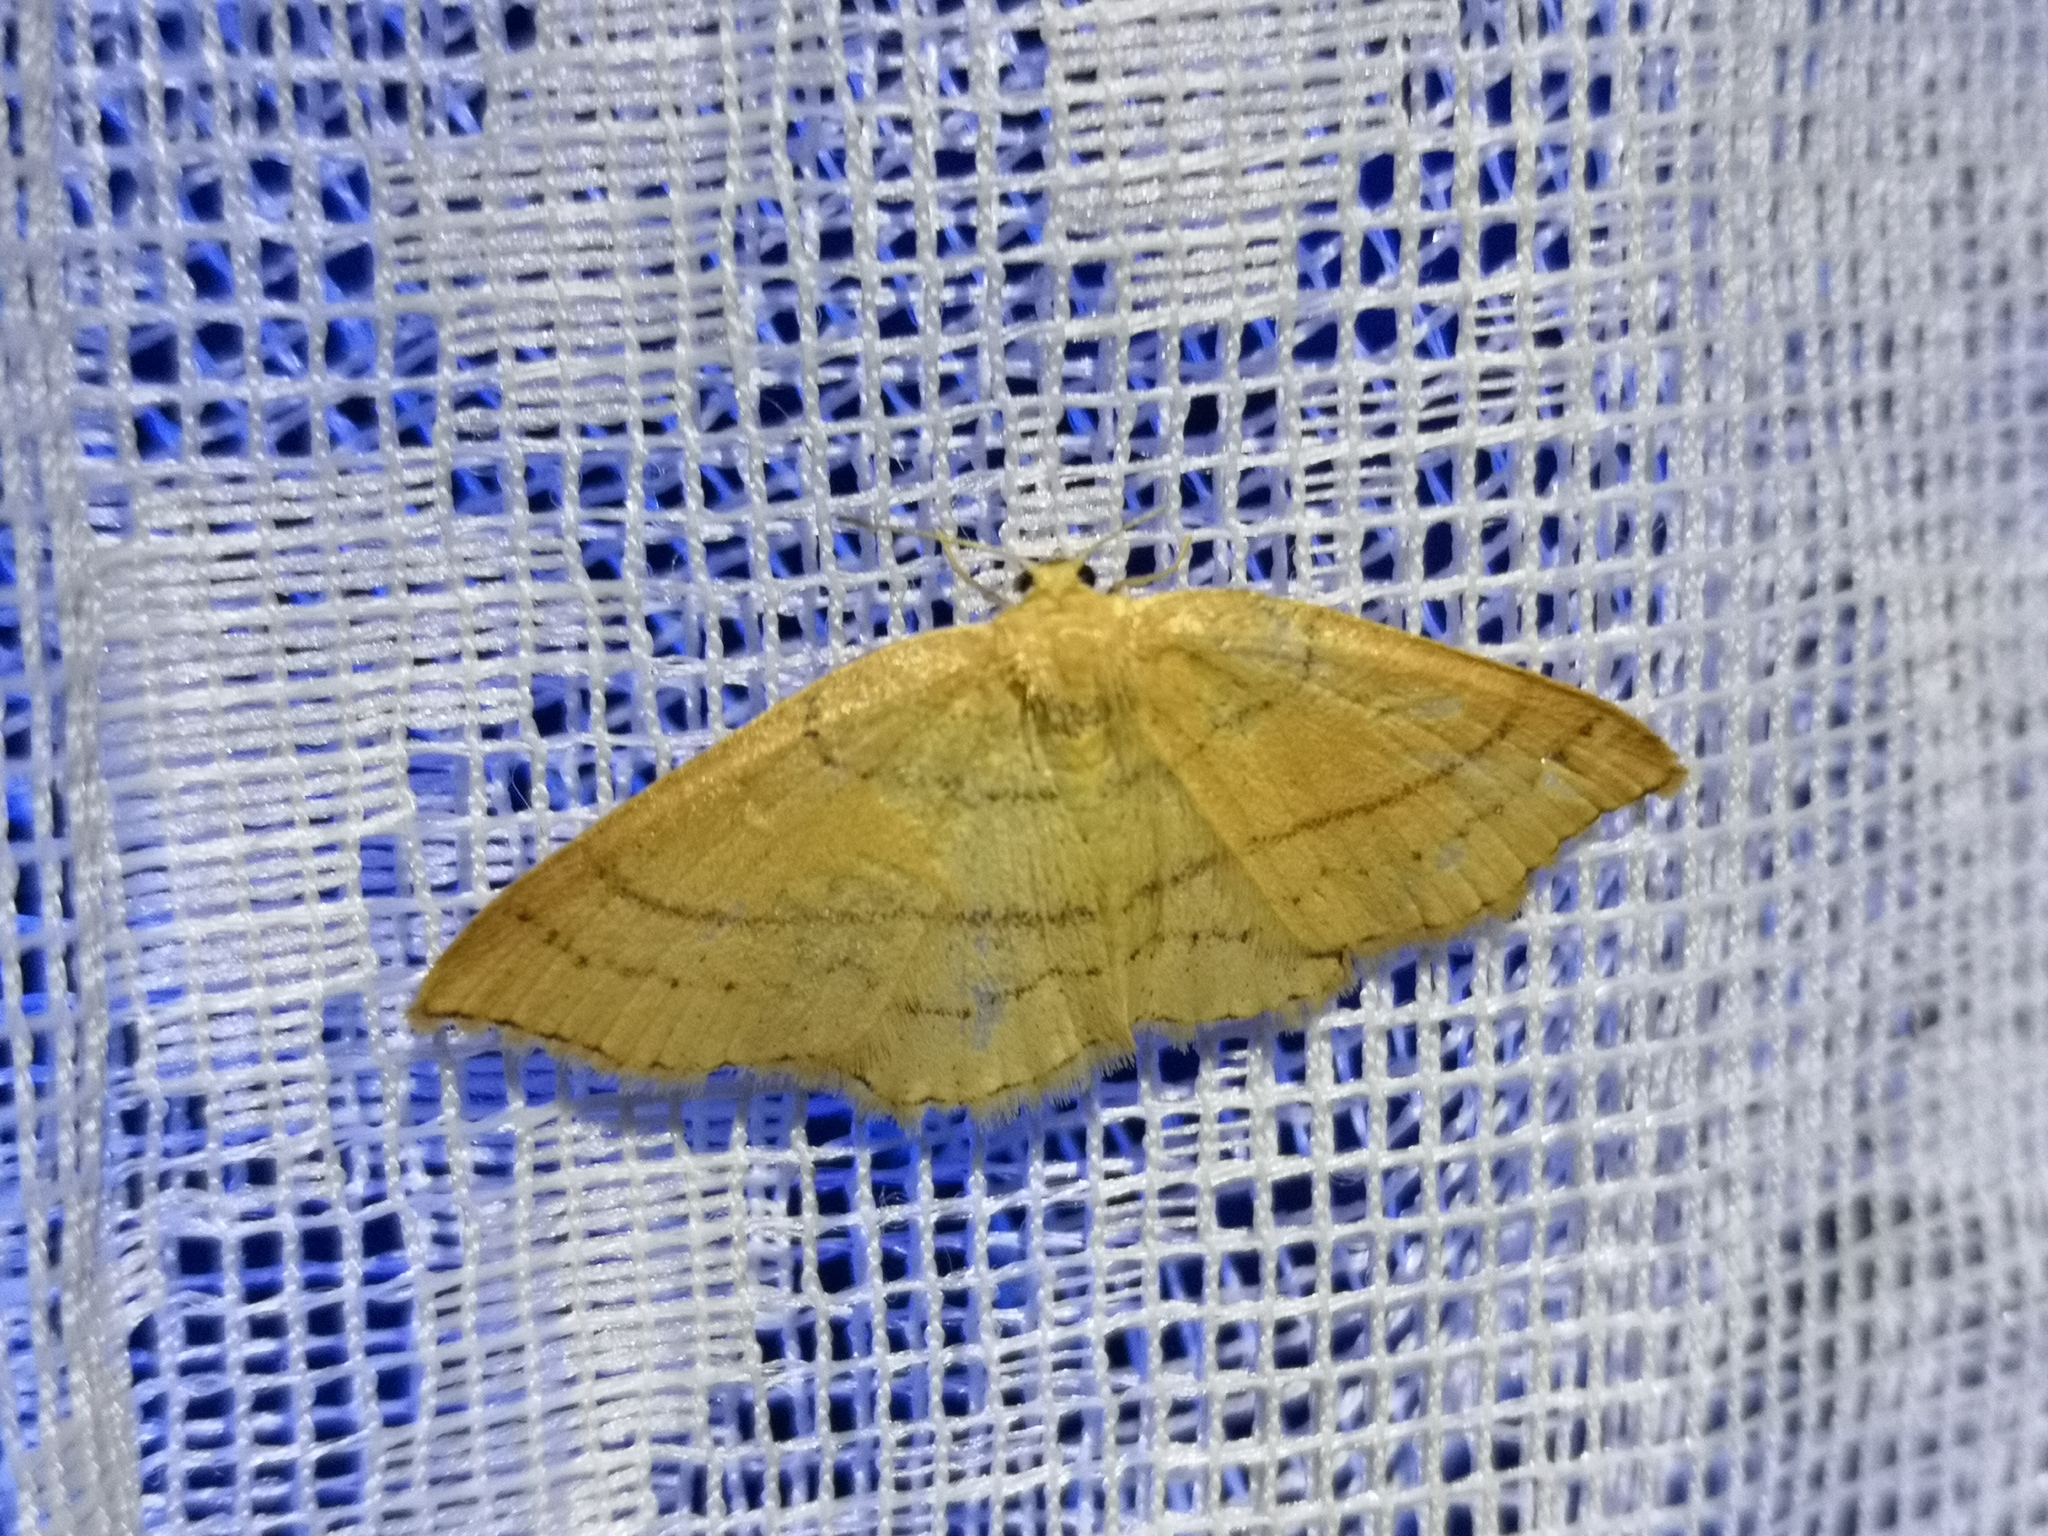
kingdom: Animalia
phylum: Arthropoda
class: Insecta
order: Lepidoptera
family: Geometridae
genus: Cyclophora
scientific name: Cyclophora linearia
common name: Clay triple-lines
